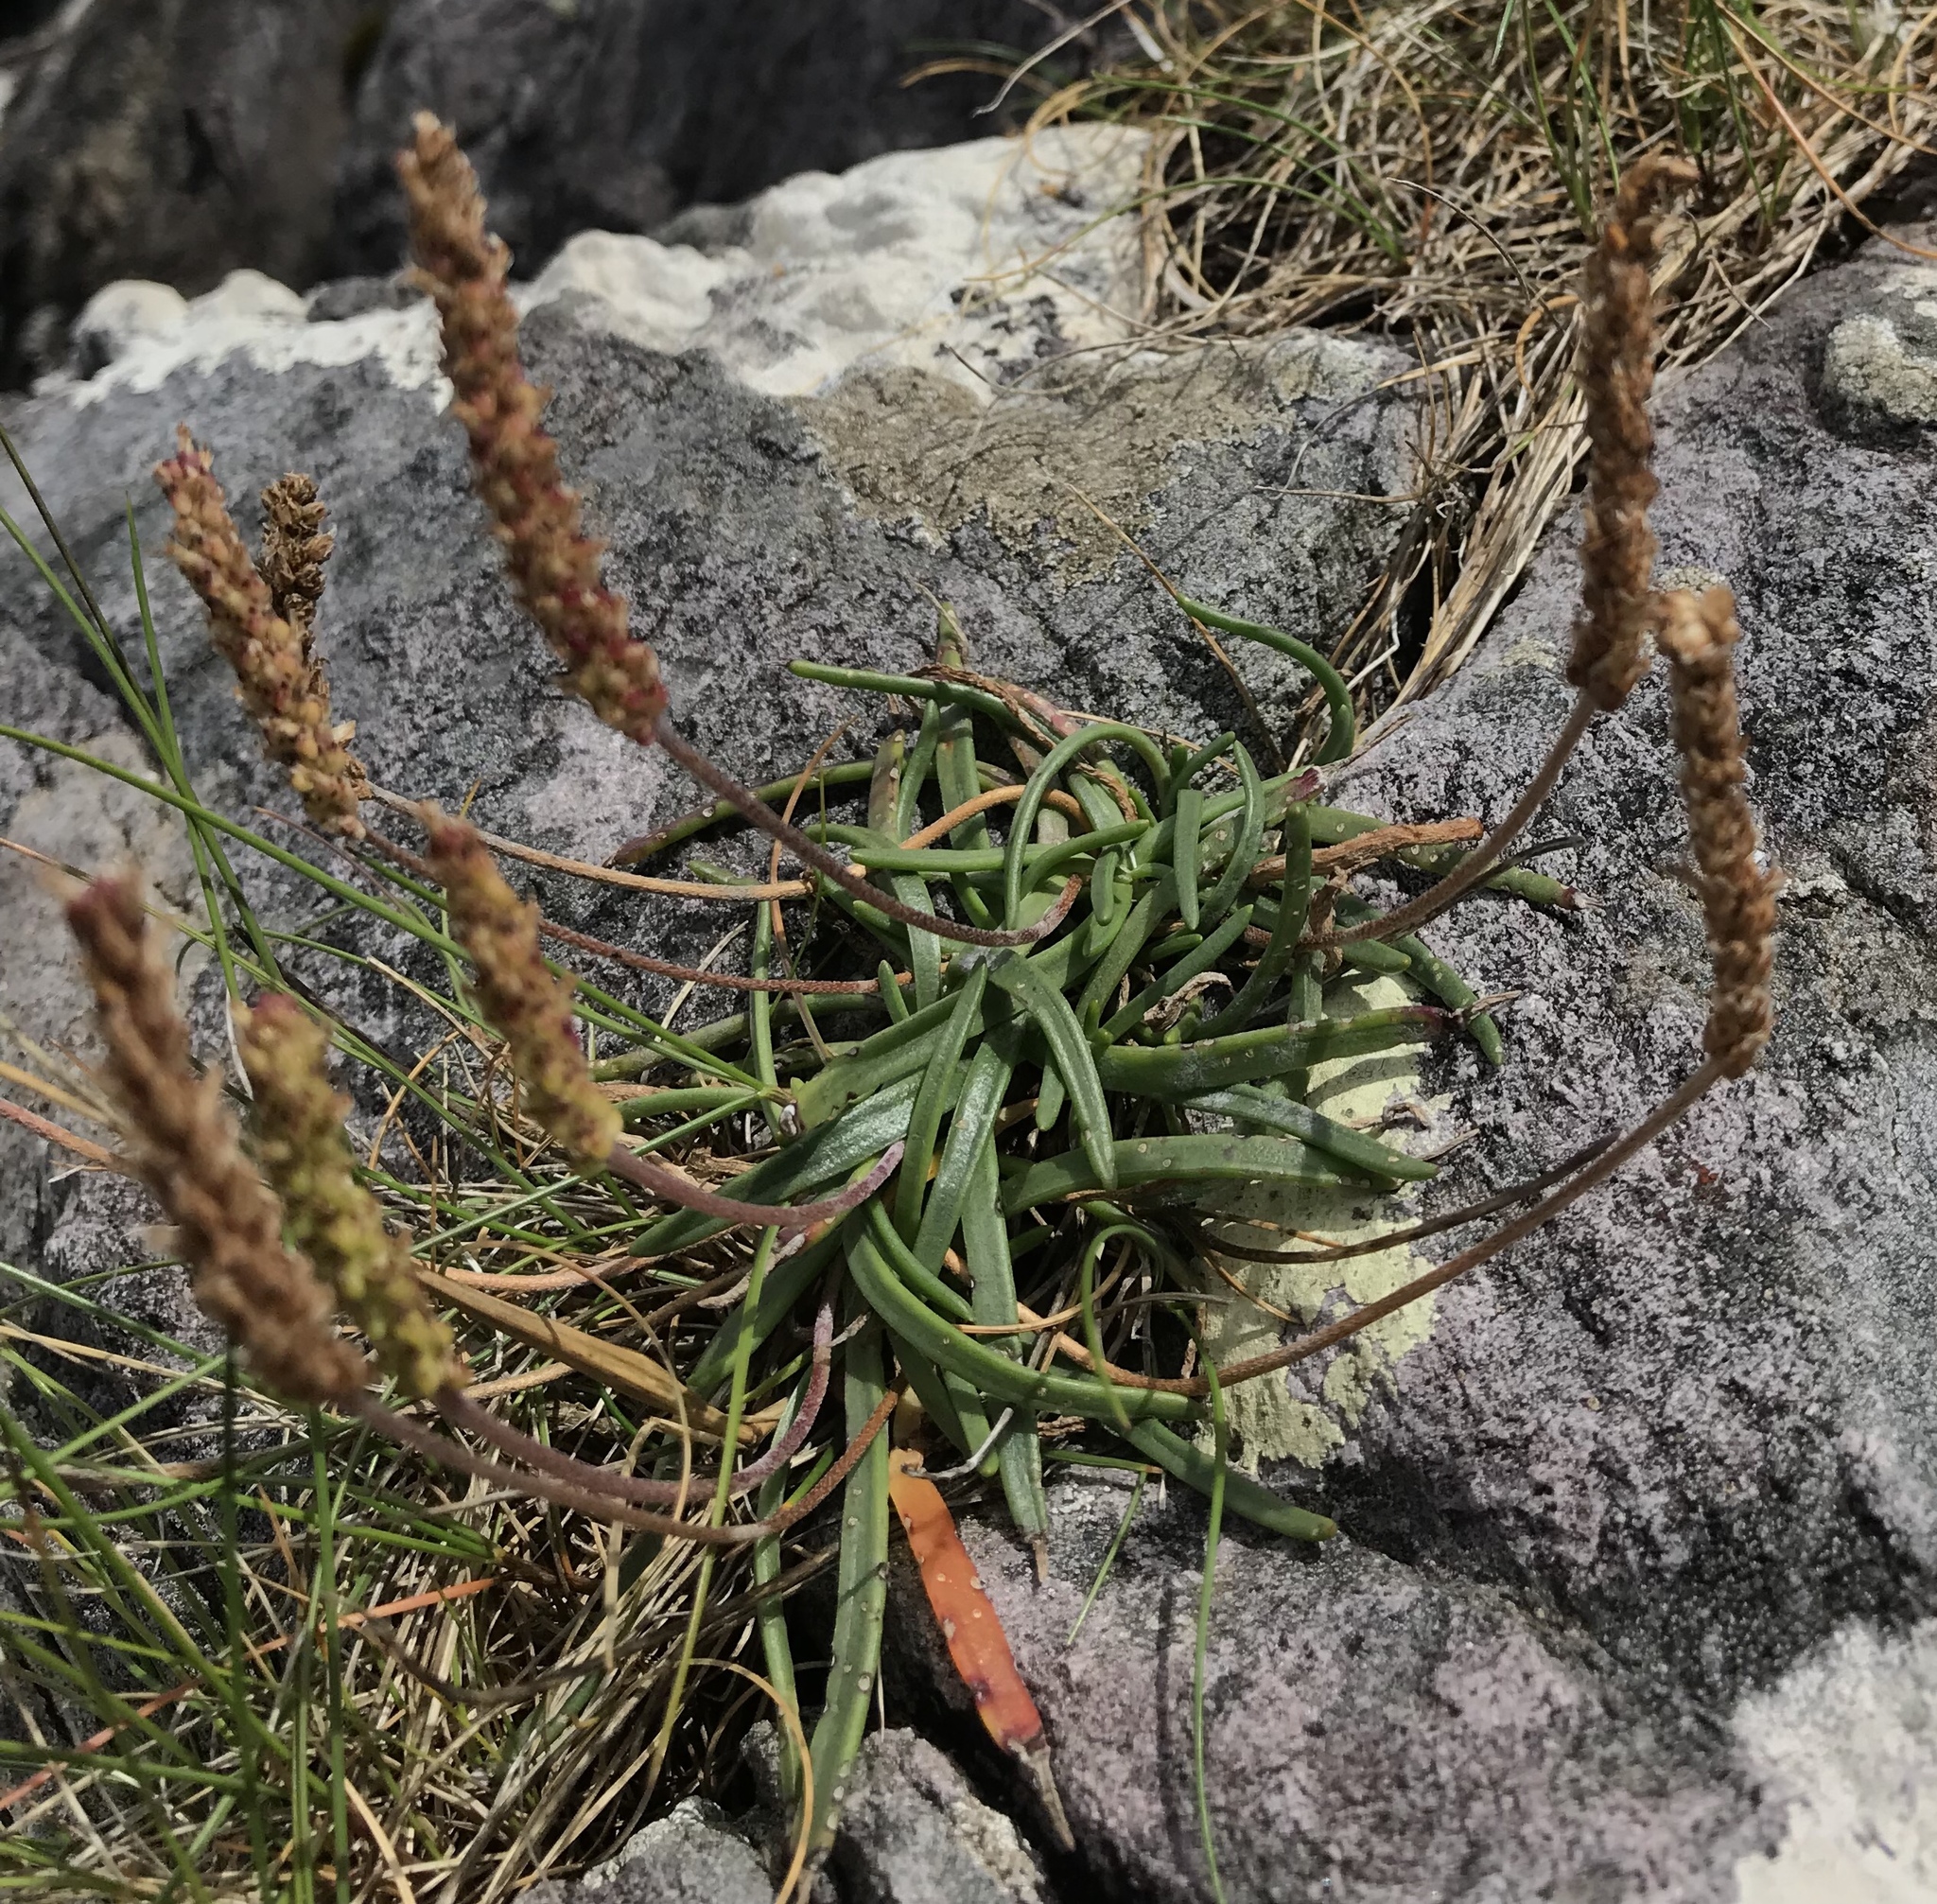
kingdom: Plantae
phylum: Tracheophyta
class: Magnoliopsida
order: Lamiales
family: Plantaginaceae
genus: Plantago
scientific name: Plantago maritima
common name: Sea plantain
